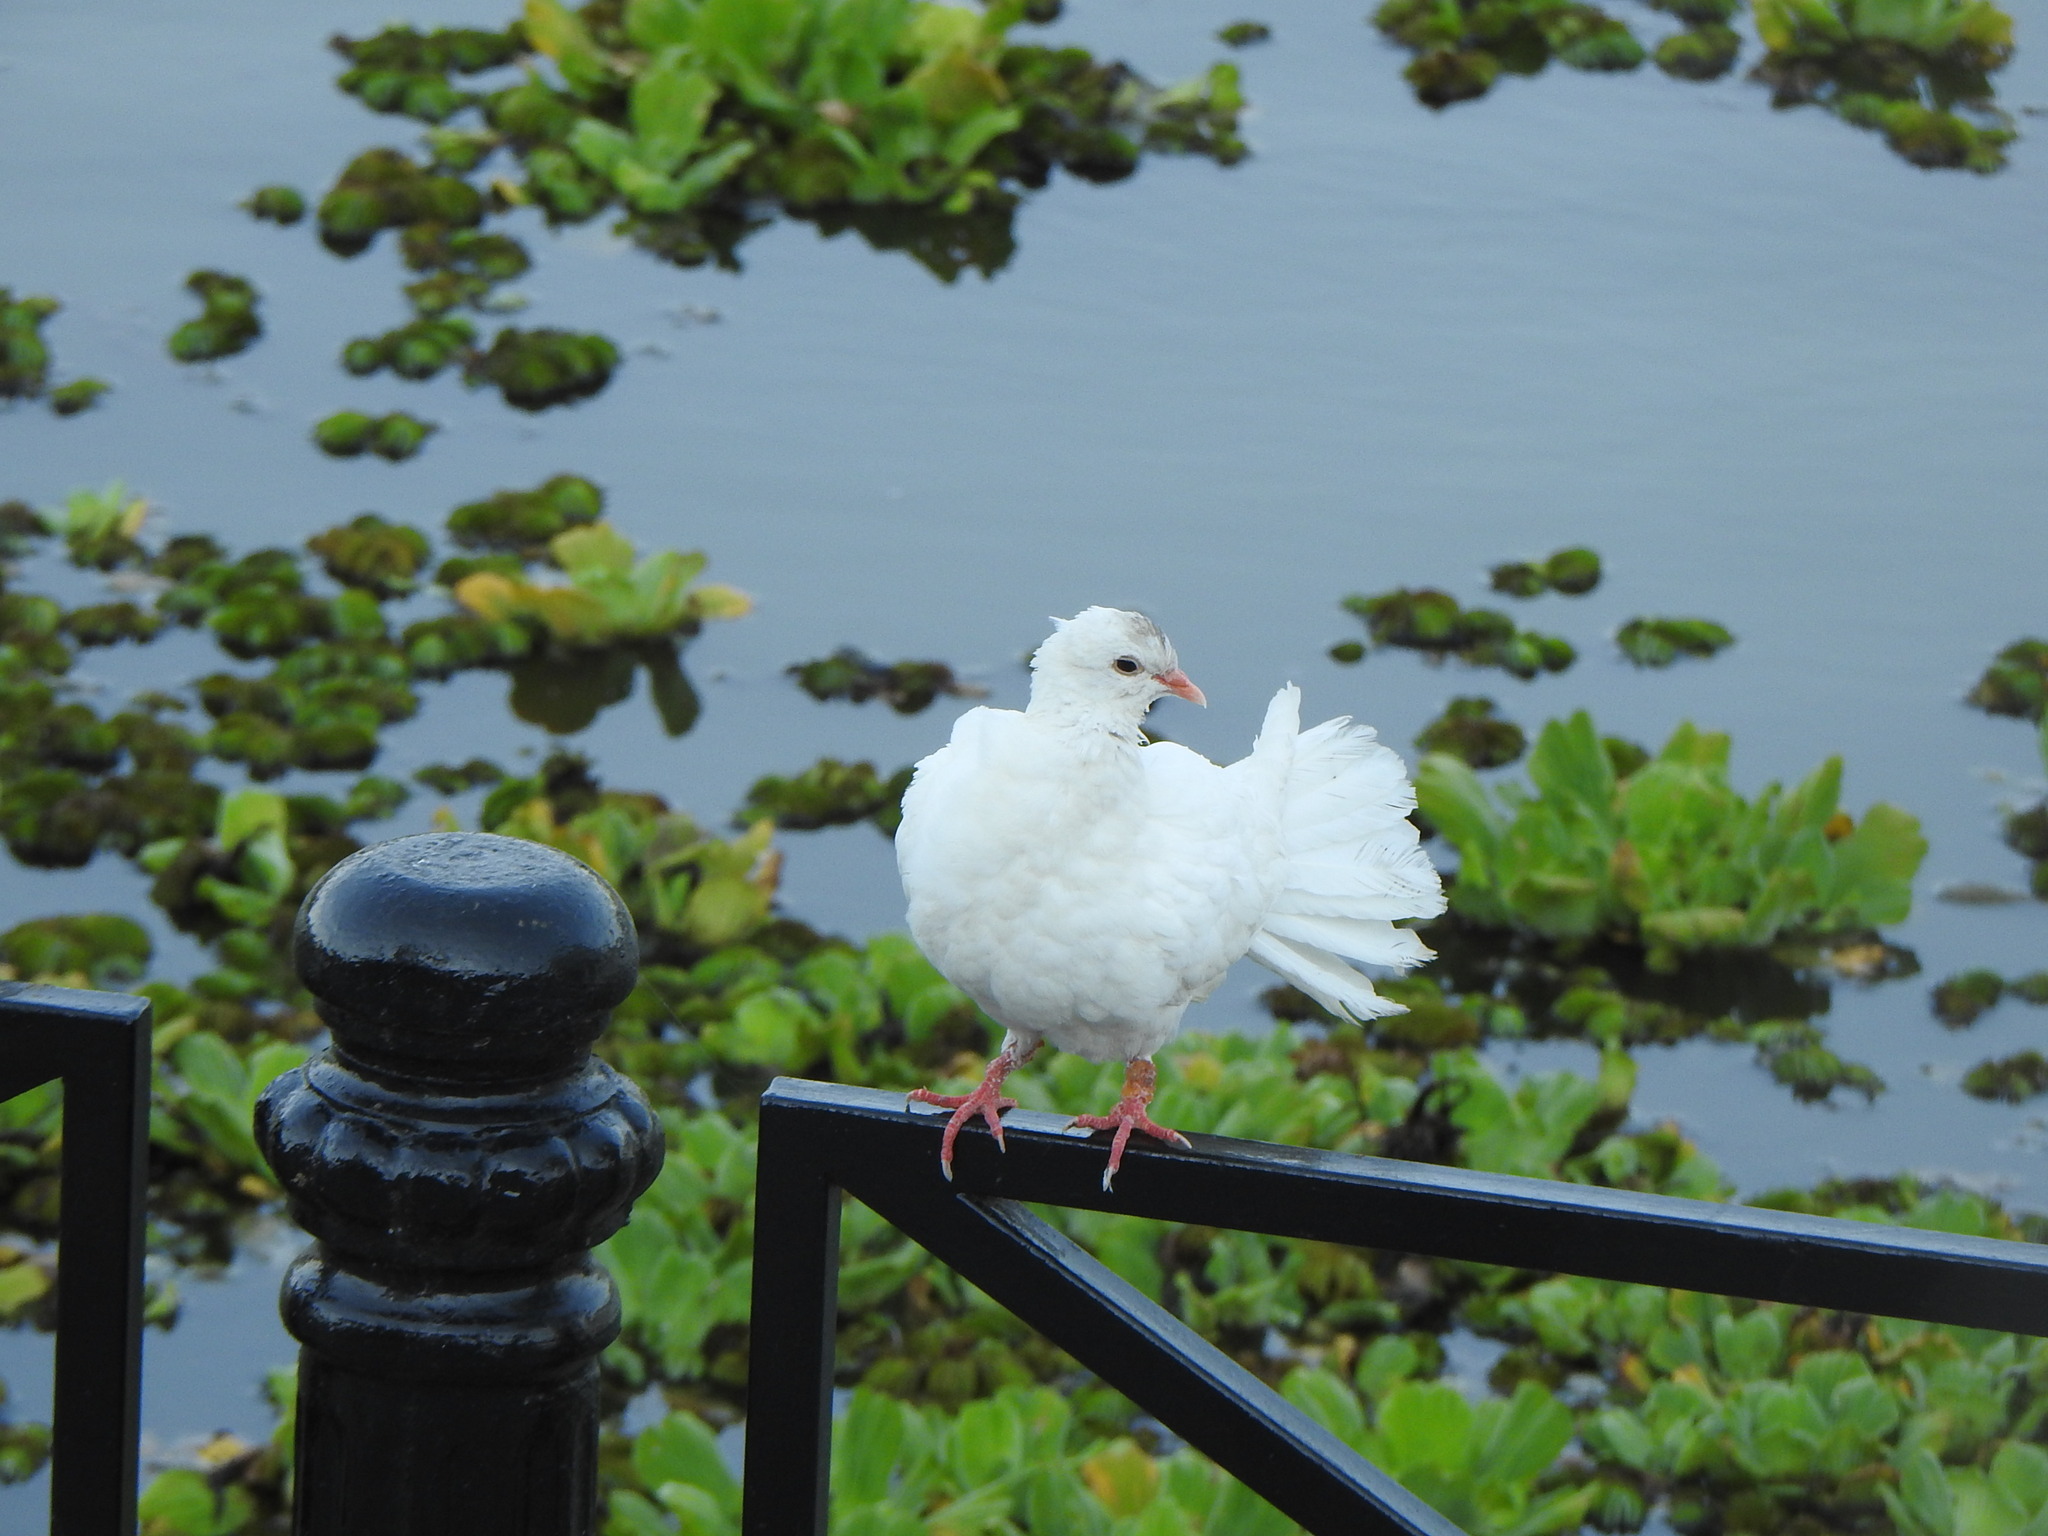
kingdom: Animalia
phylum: Chordata
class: Aves
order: Columbiformes
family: Columbidae
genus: Columba
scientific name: Columba livia
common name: Rock pigeon
